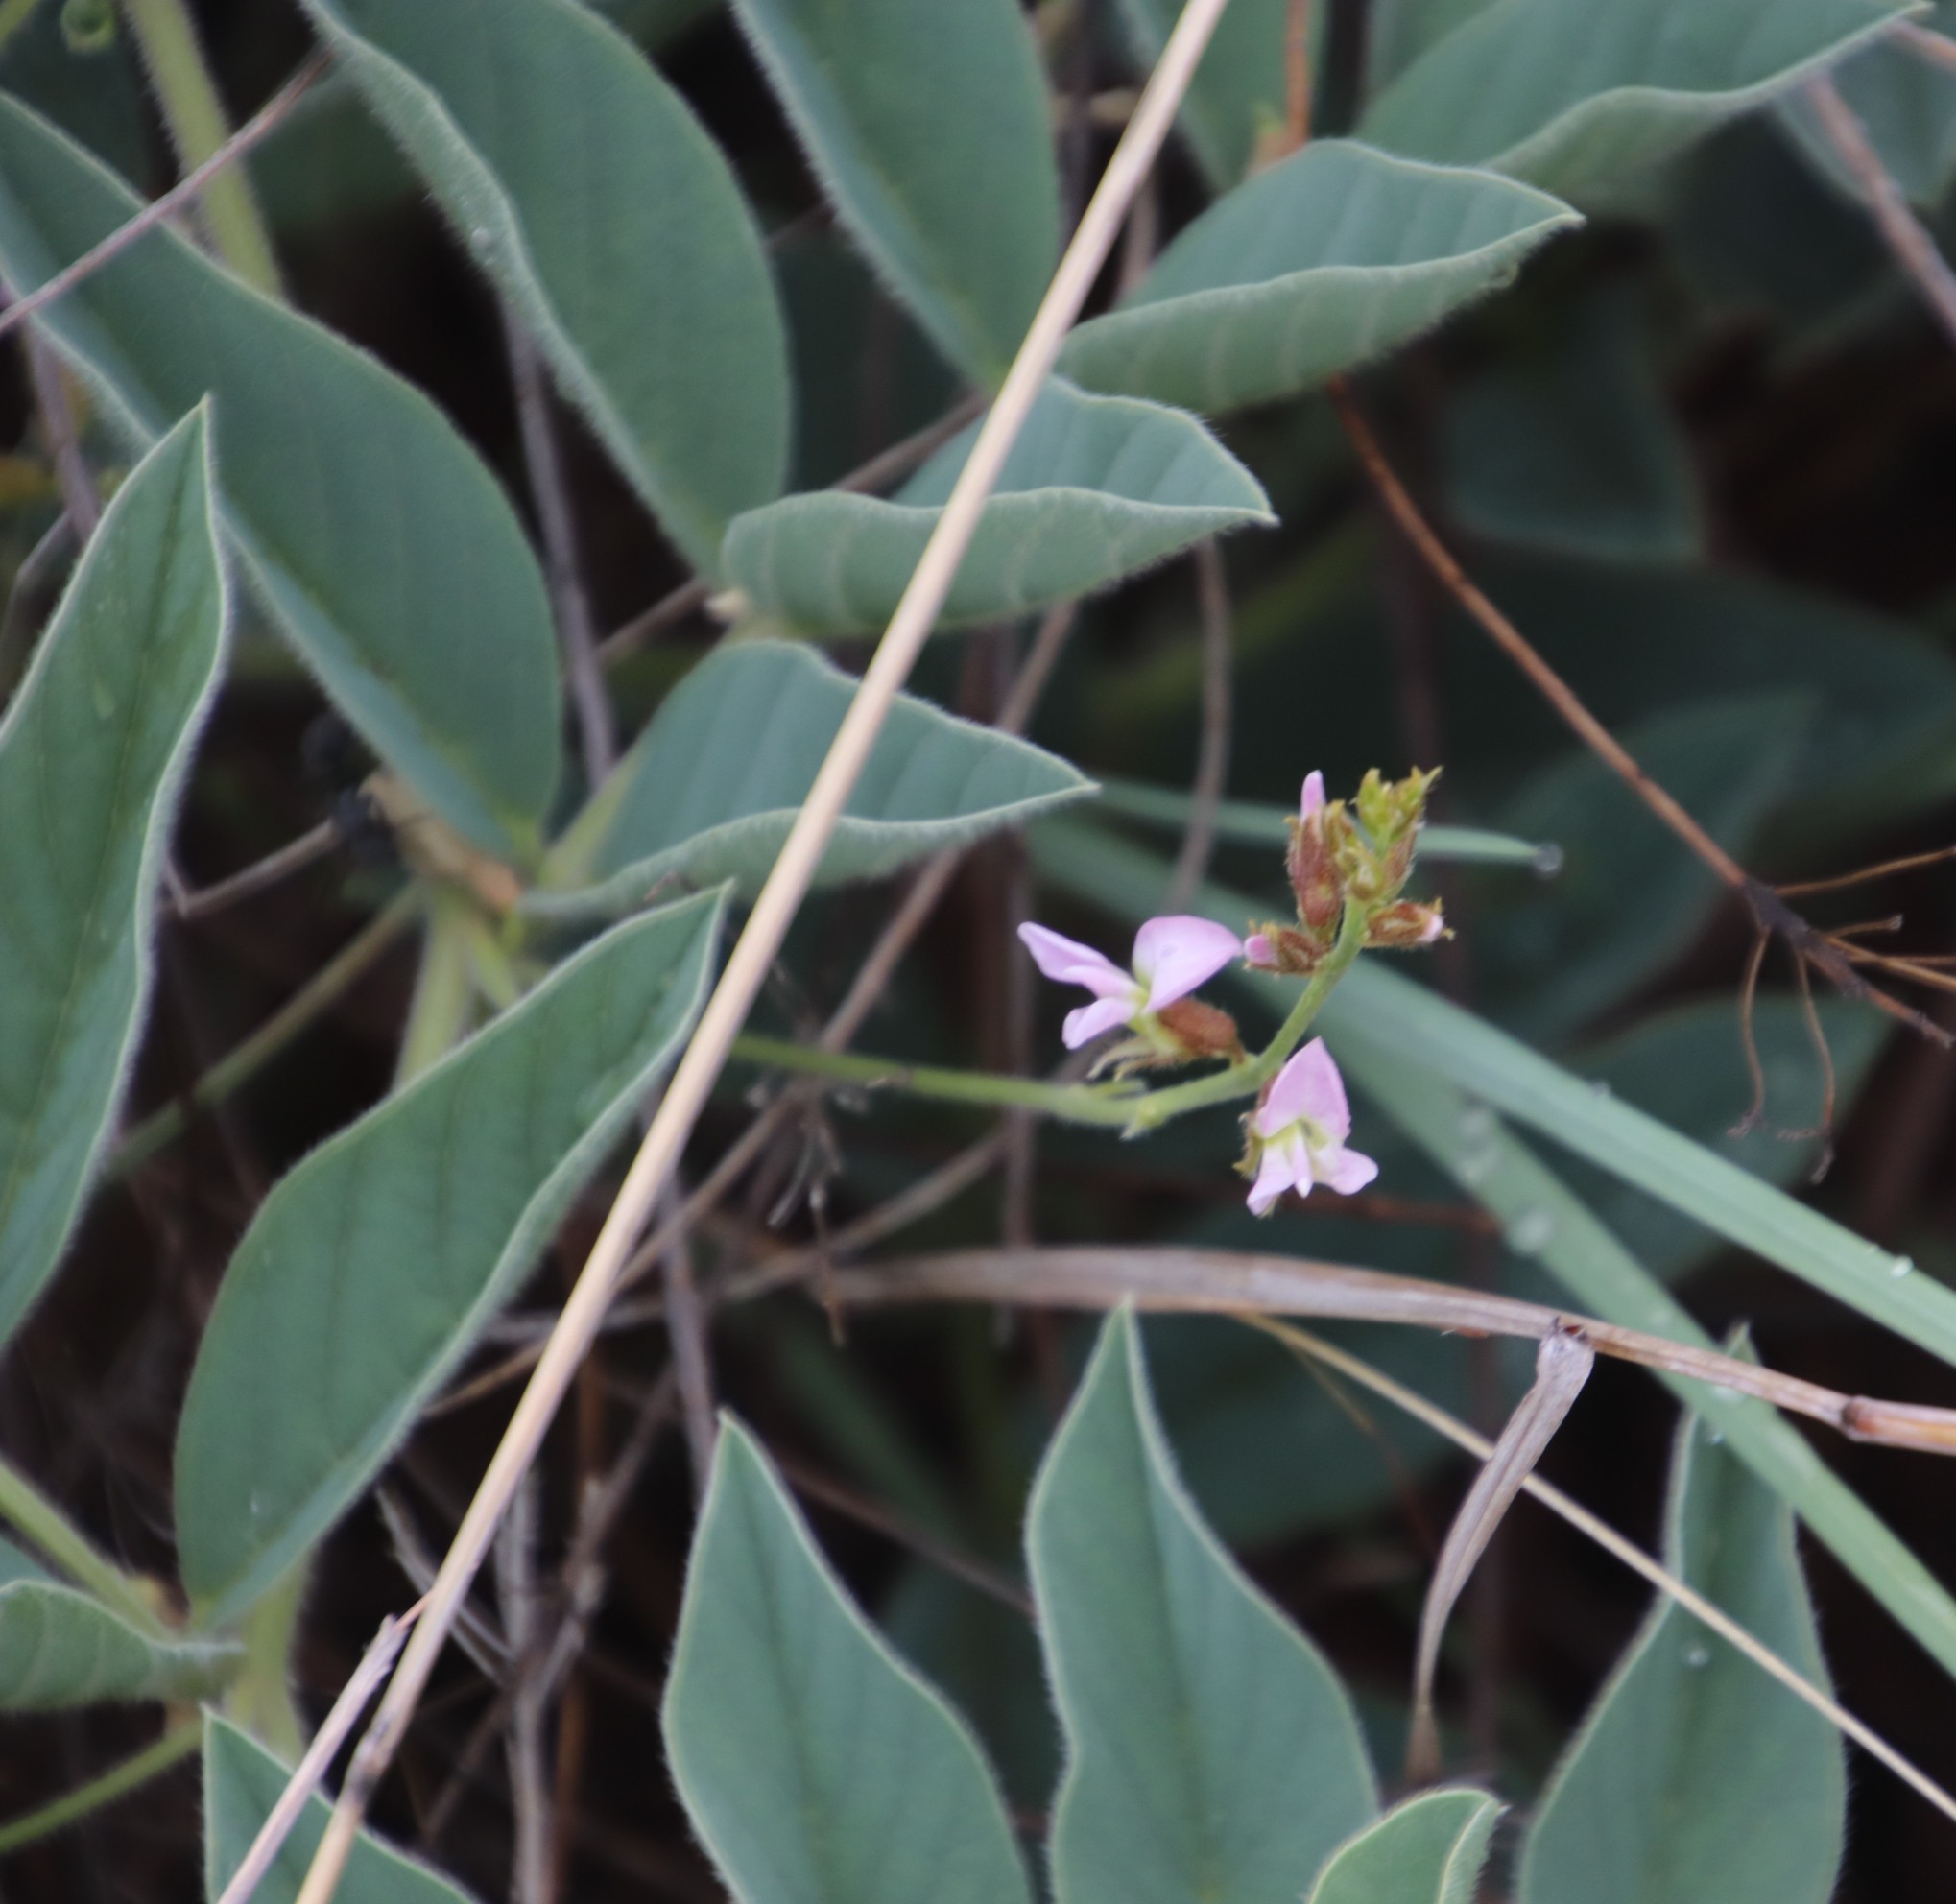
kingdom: Plantae
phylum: Tracheophyta
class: Magnoliopsida
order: Fabales
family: Fabaceae
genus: Ophrestia
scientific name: Ophrestia oblongifolia
